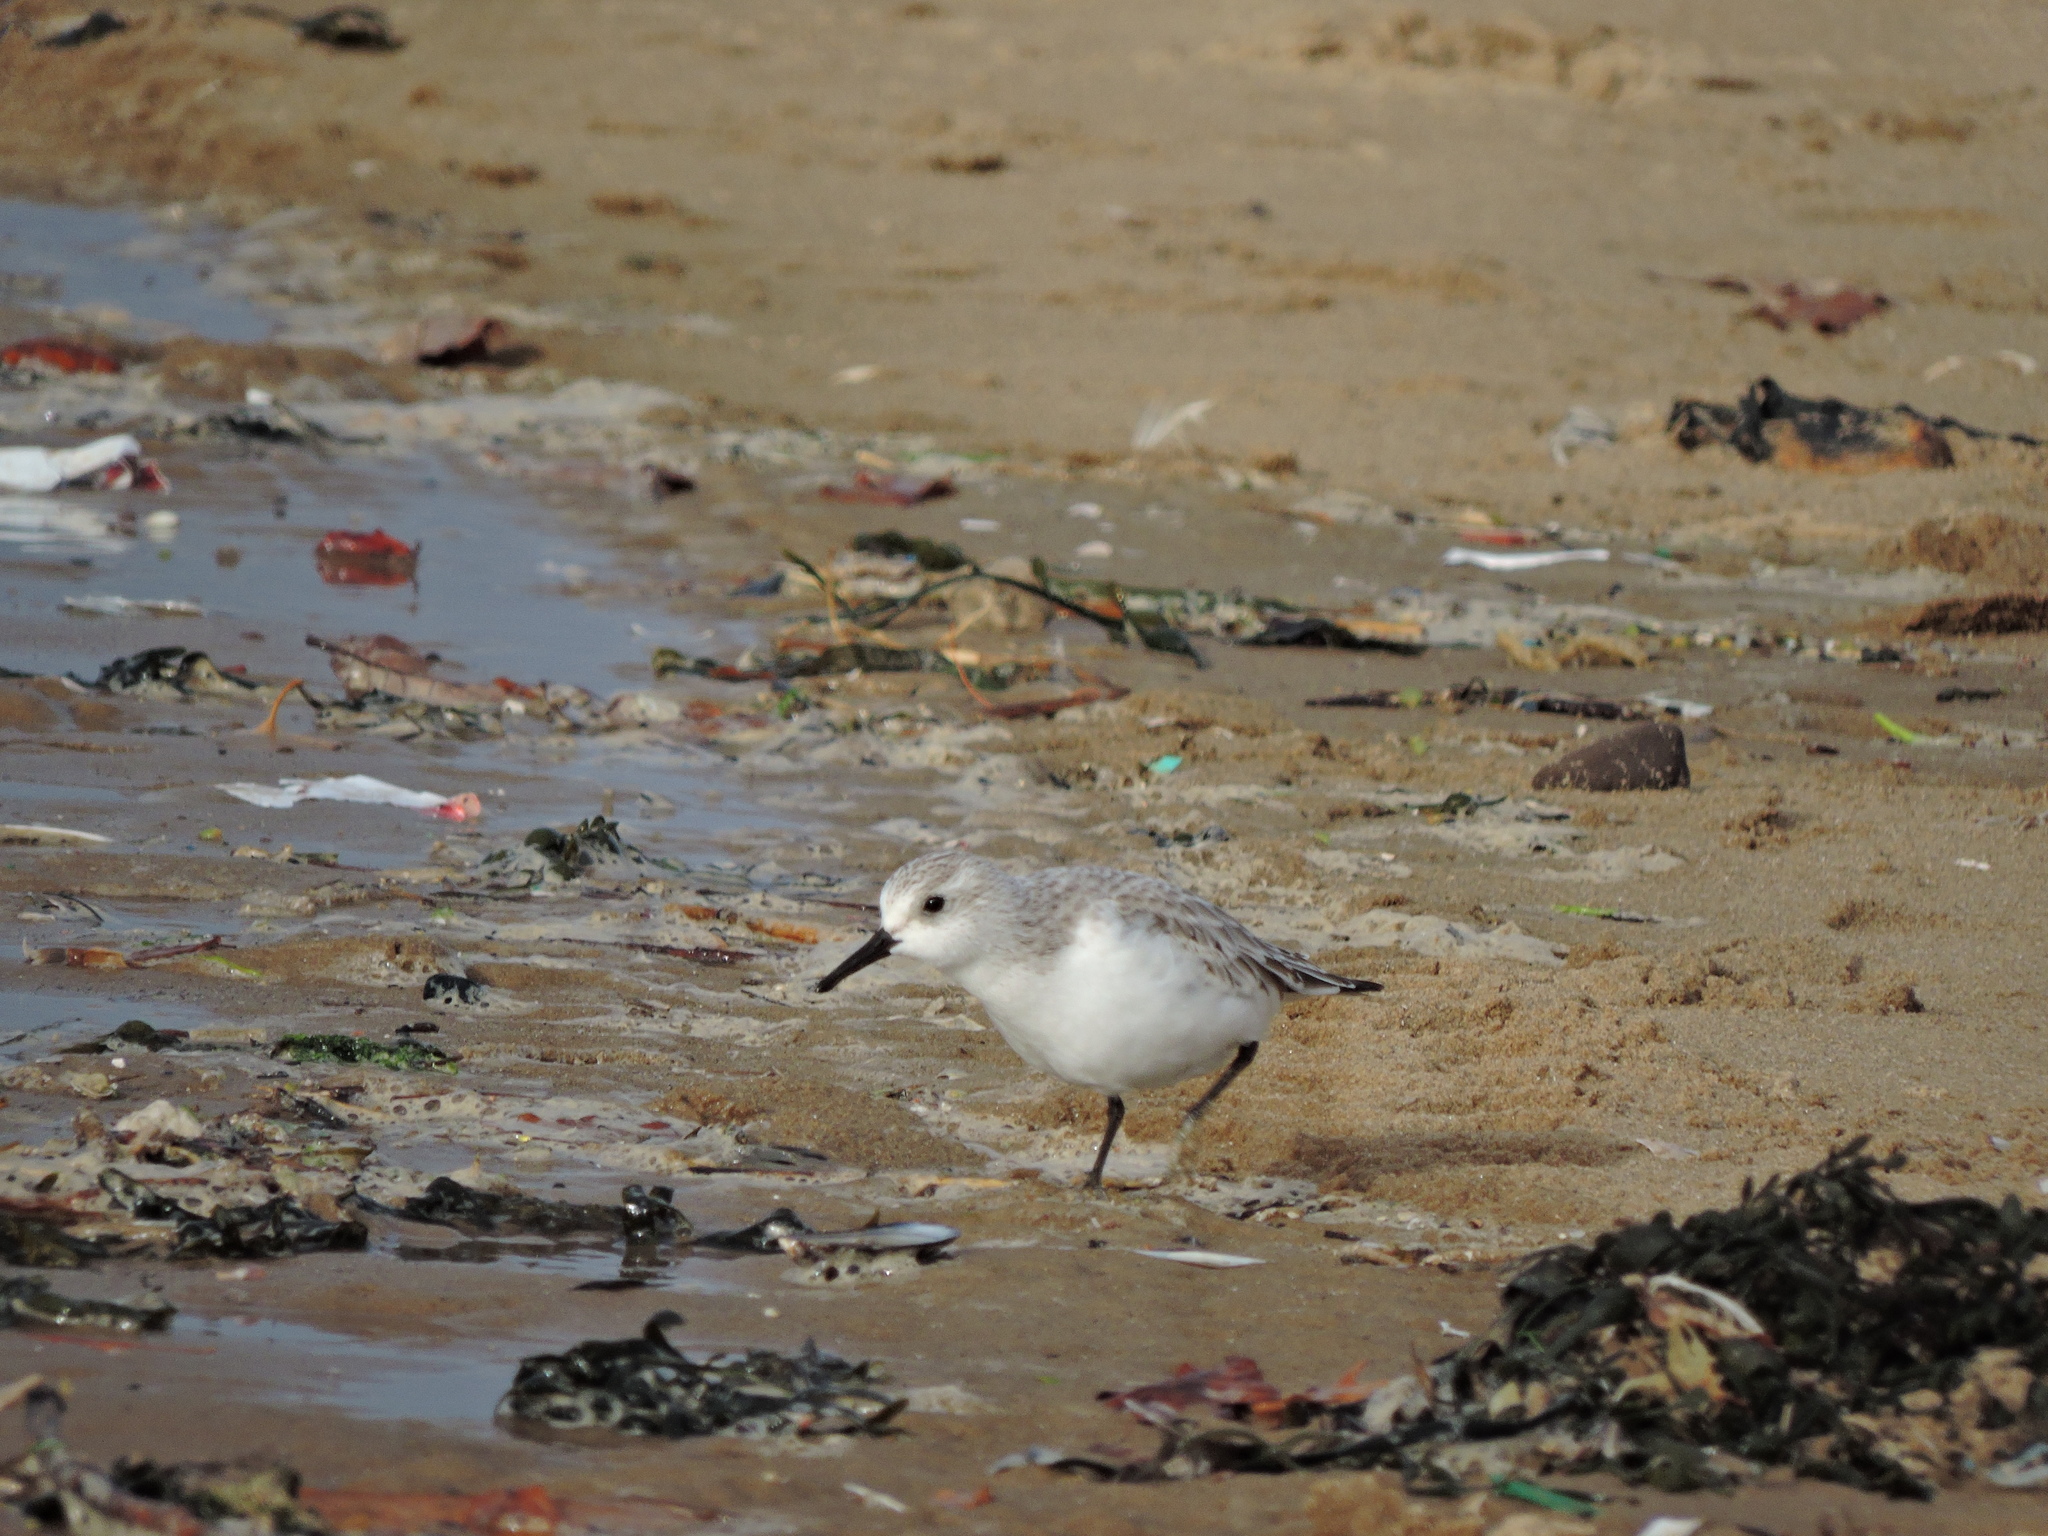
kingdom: Animalia
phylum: Chordata
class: Aves
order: Charadriiformes
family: Scolopacidae
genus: Calidris
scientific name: Calidris alba
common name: Sanderling
